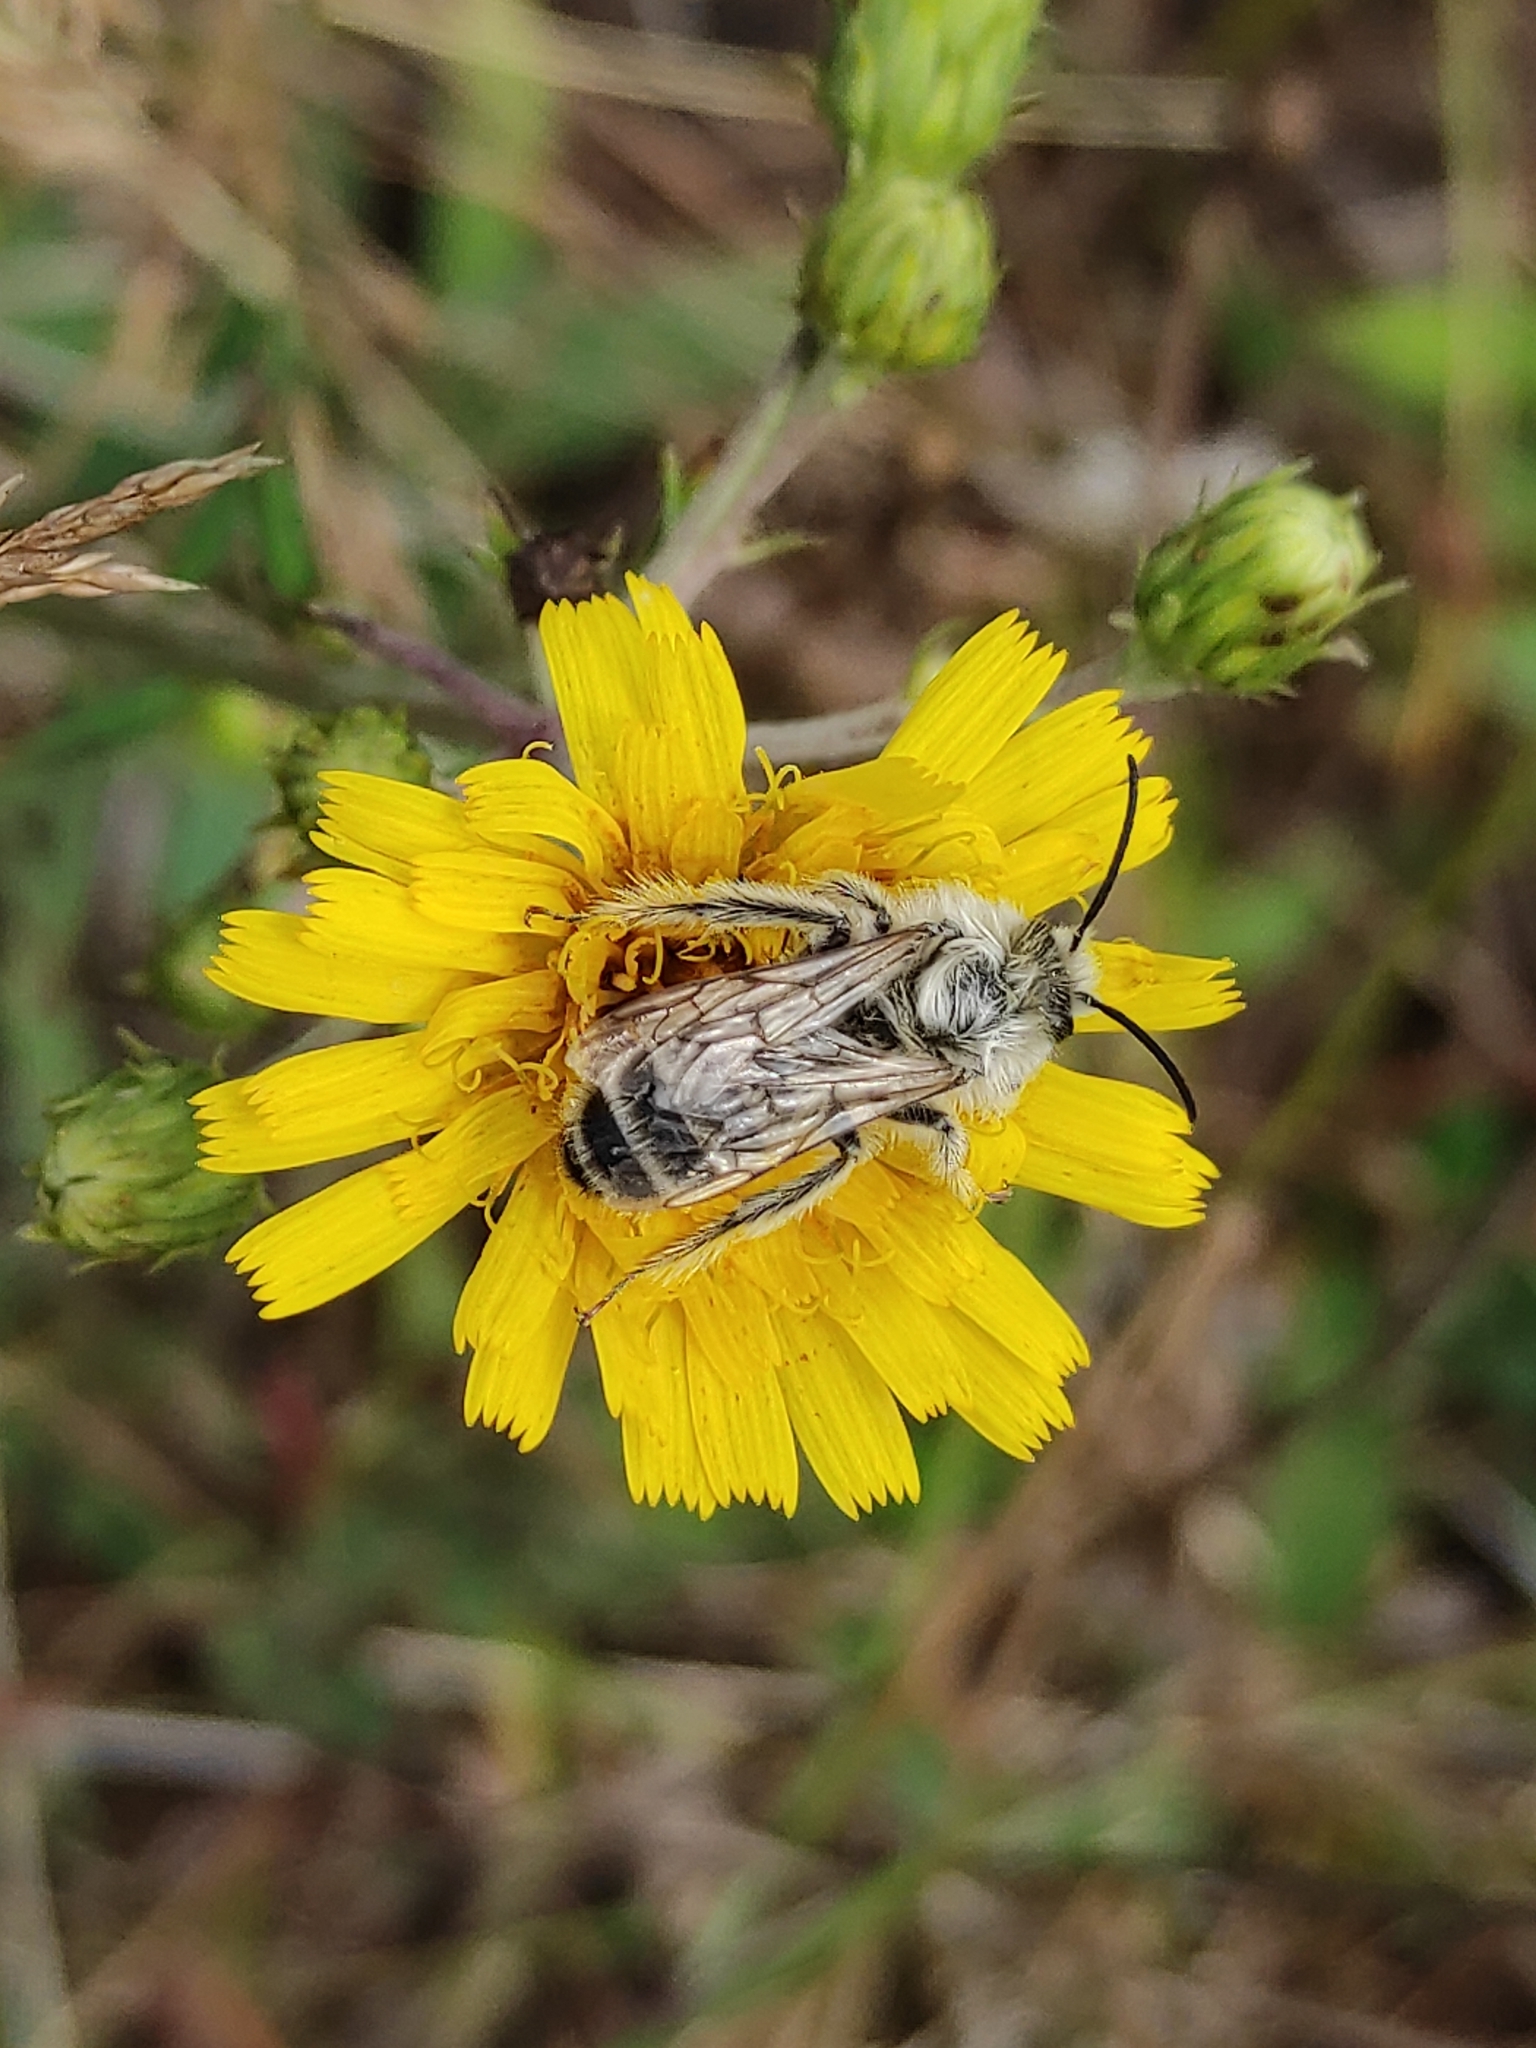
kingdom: Animalia
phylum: Arthropoda
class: Insecta
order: Hymenoptera
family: Melittidae
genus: Dasypoda
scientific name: Dasypoda hirtipes
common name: Pantaloon bee
